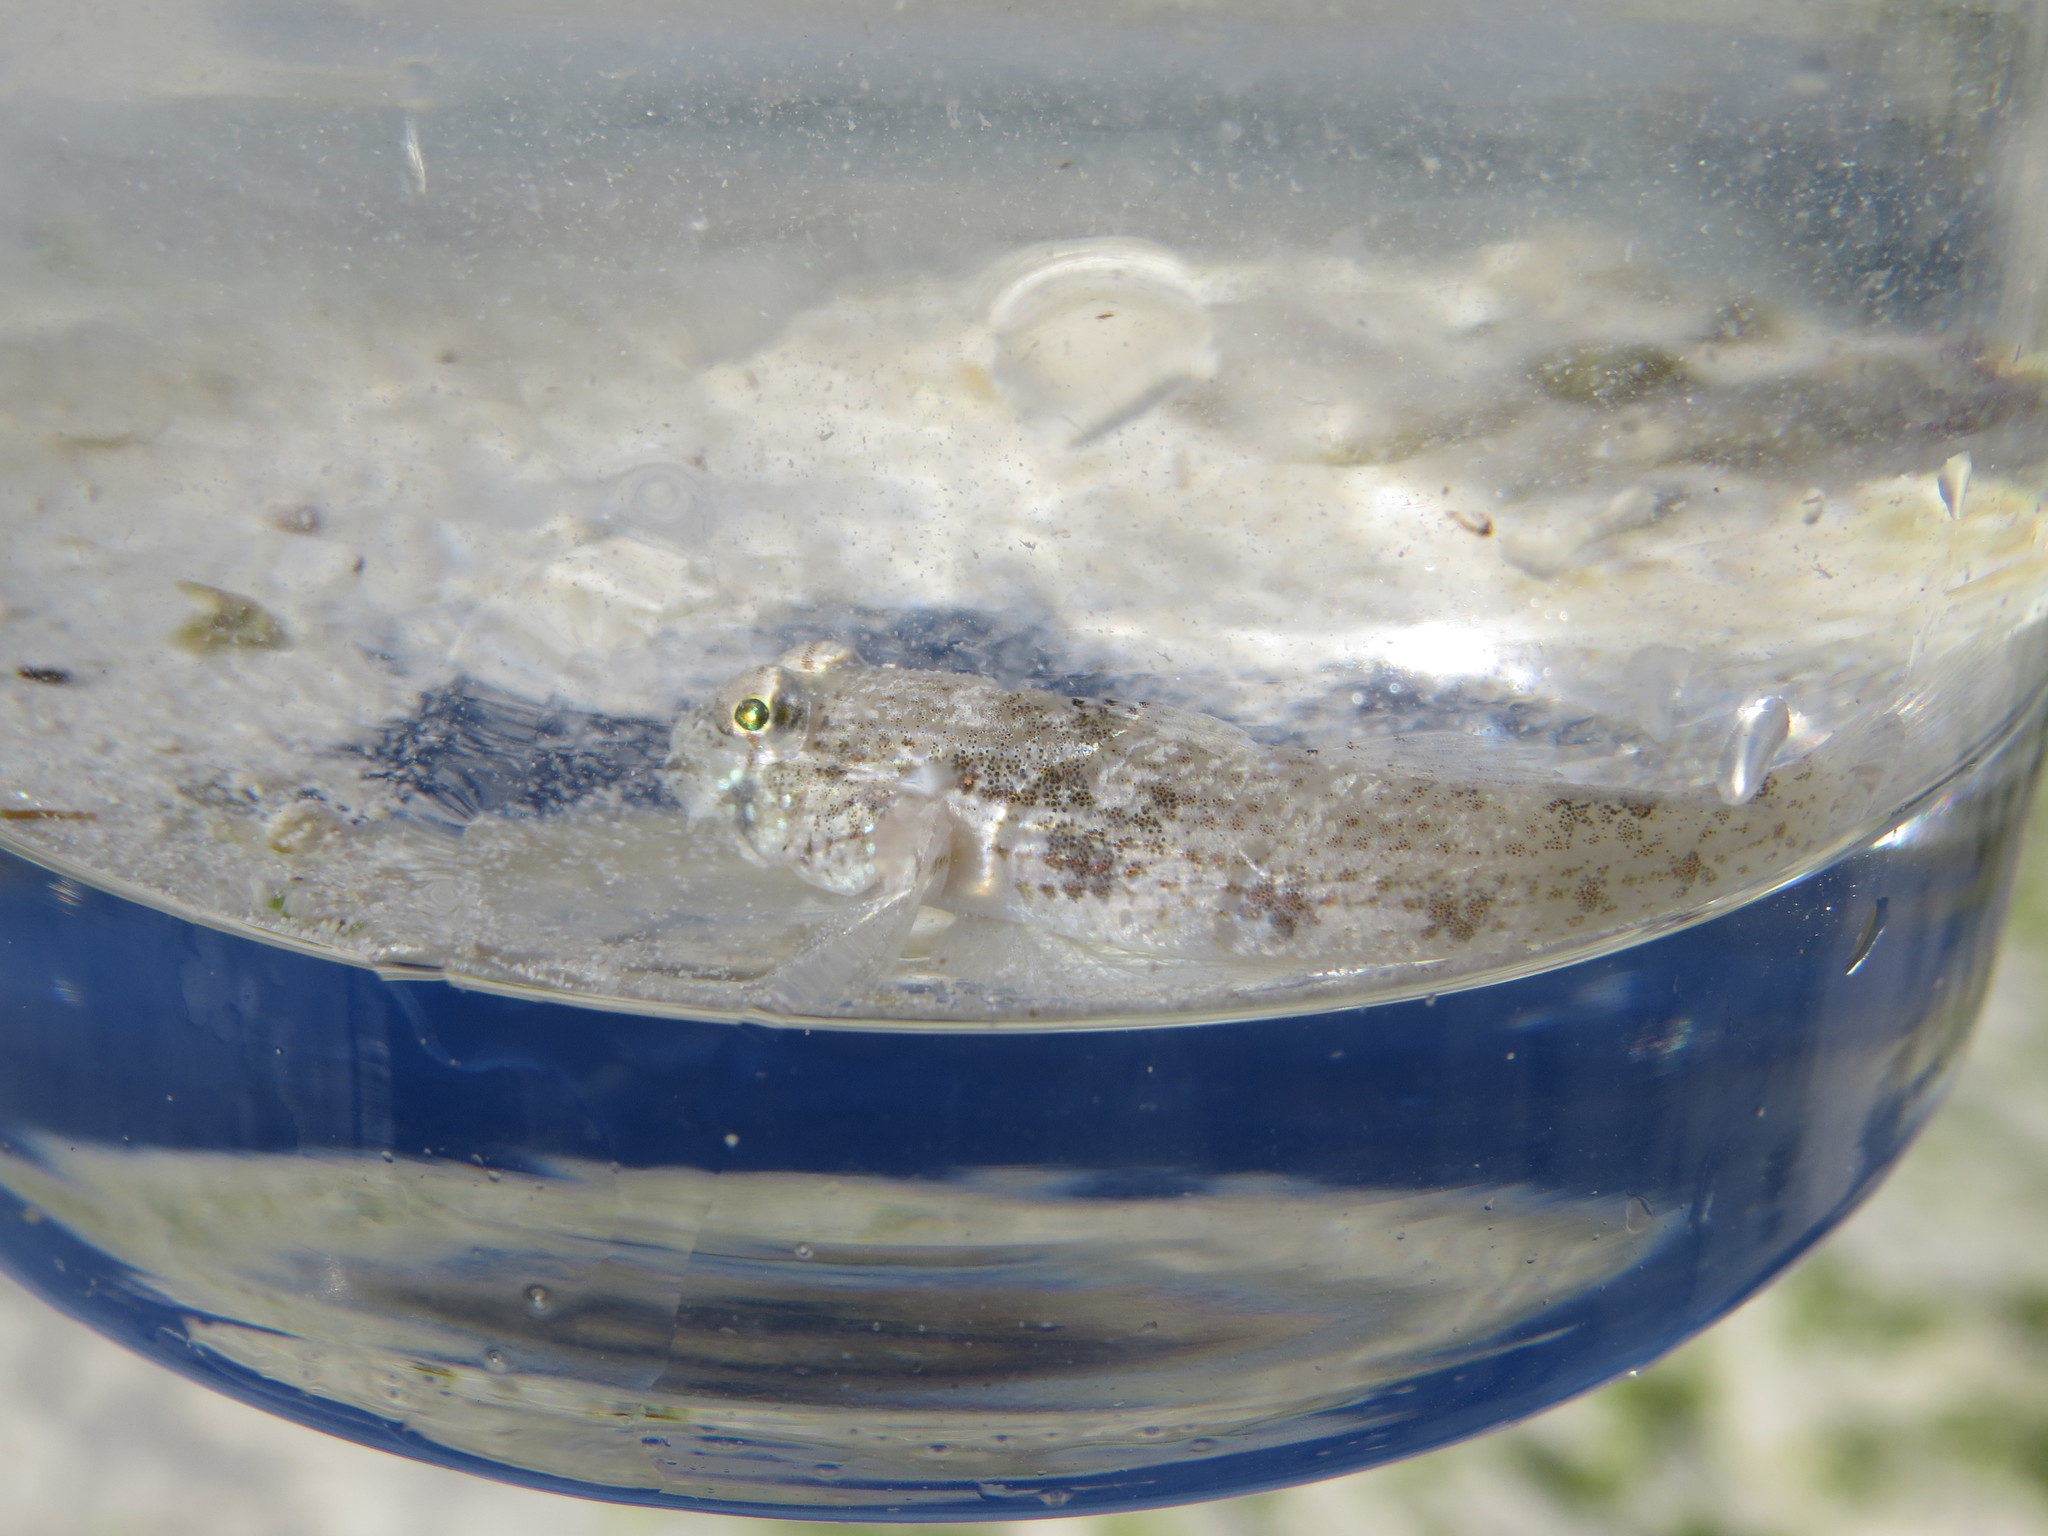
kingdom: Animalia
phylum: Chordata
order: Perciformes
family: Gobiidae
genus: Gnatholepis
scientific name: Gnatholepis anjerensis
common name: Anjer eye-bar goby
